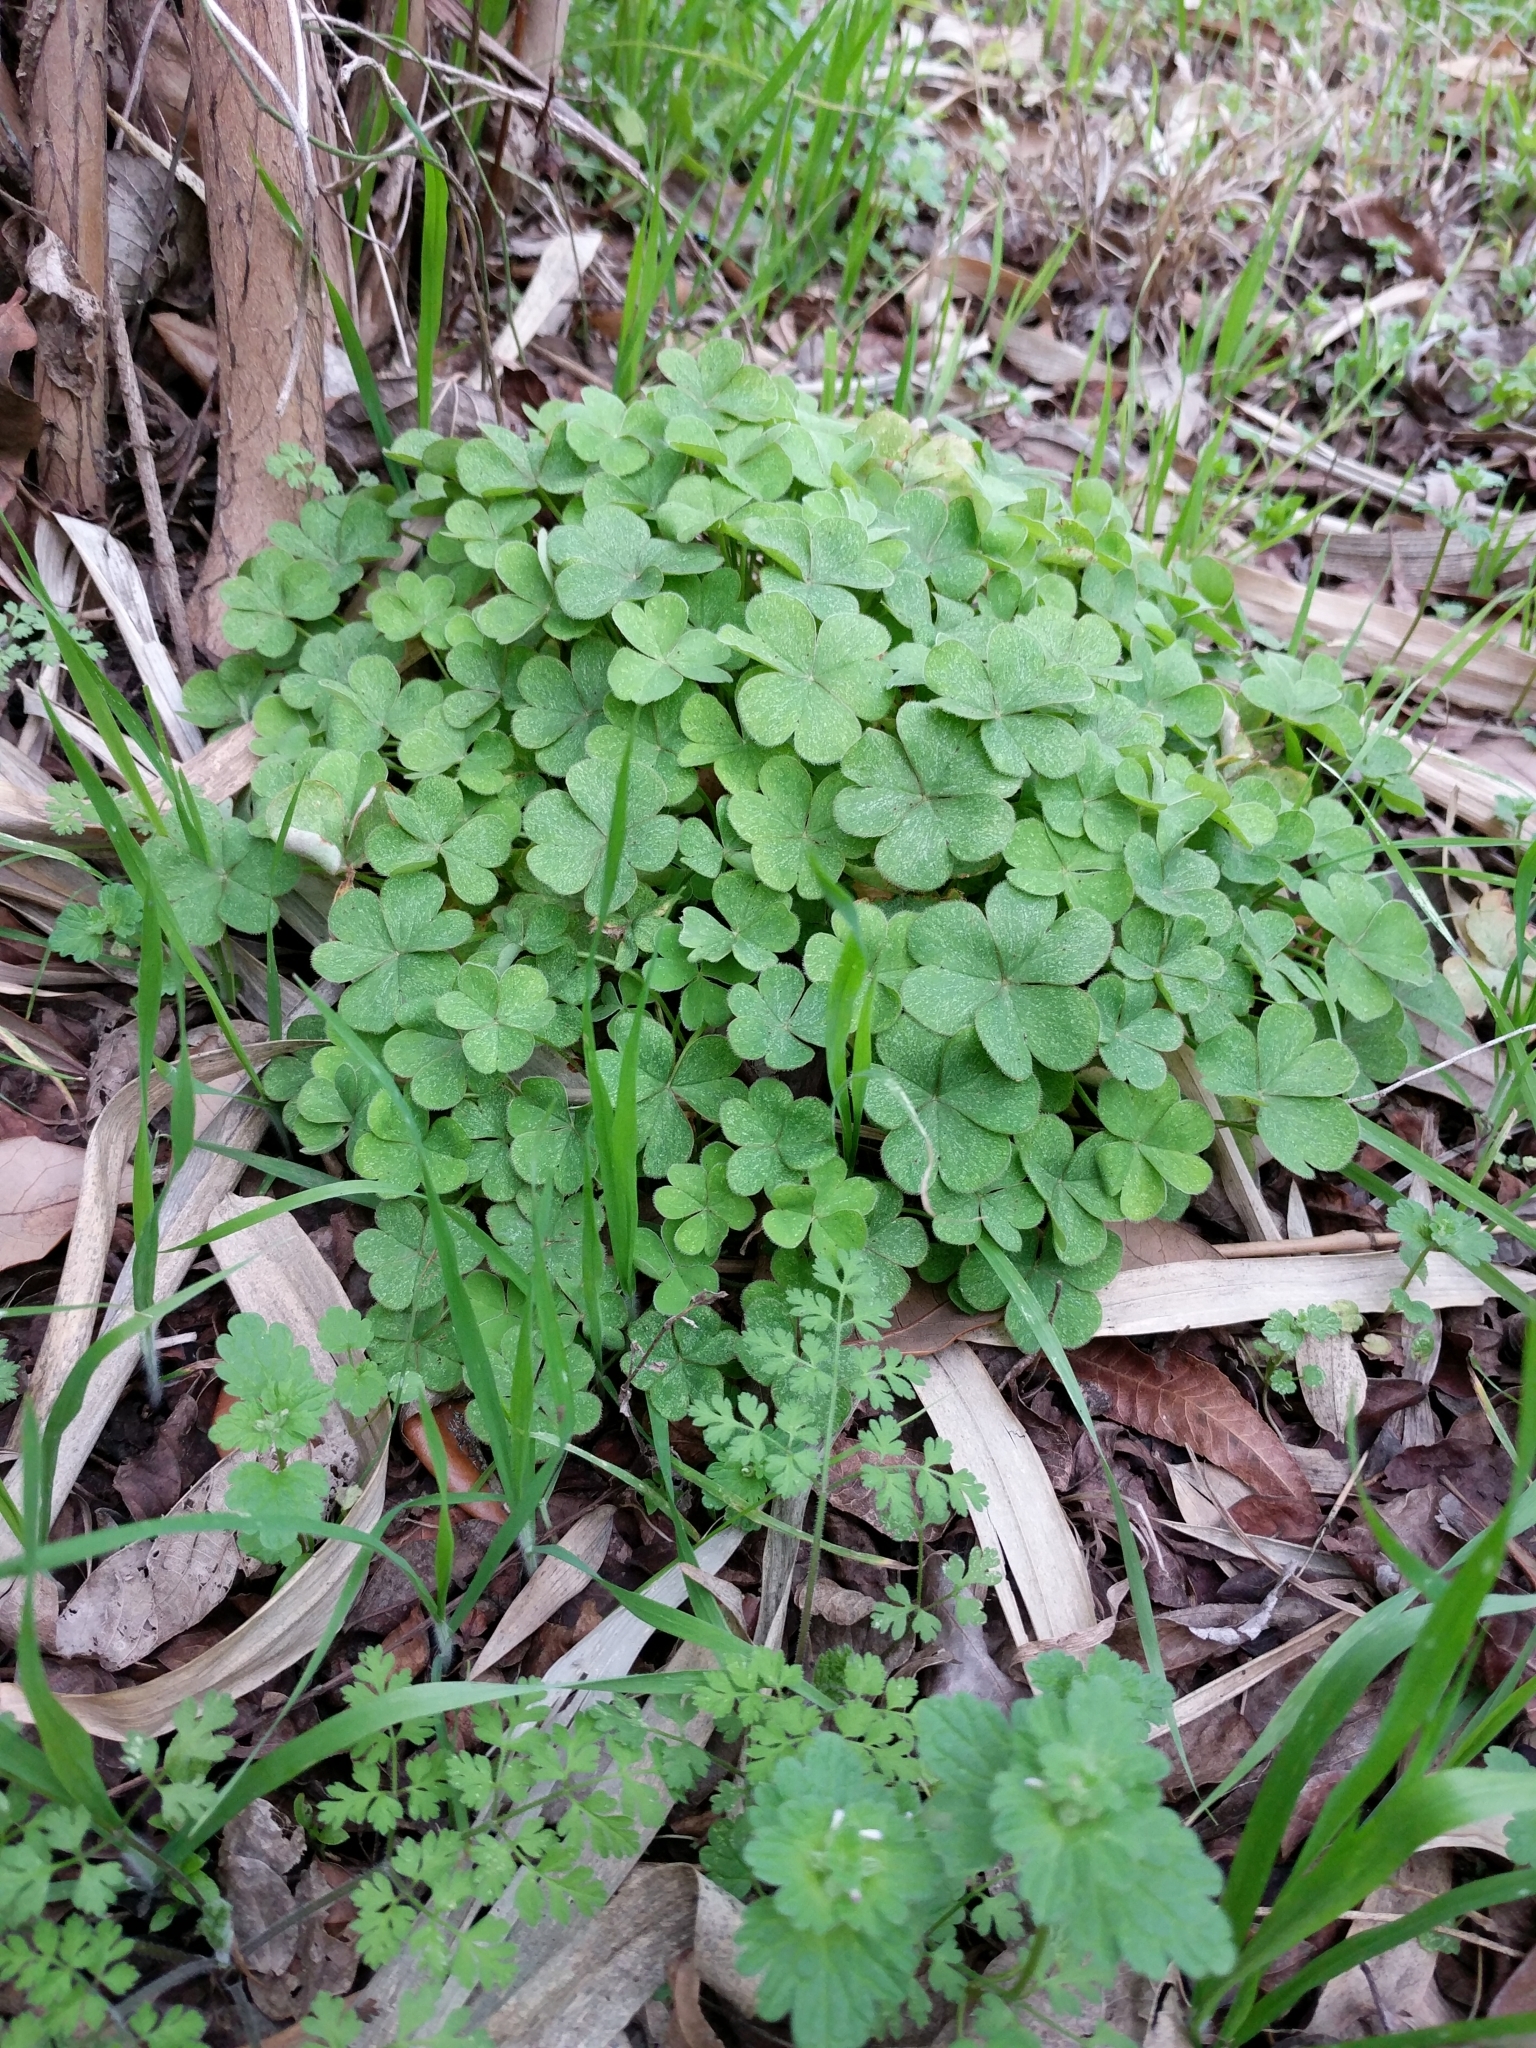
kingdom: Plantae
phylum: Tracheophyta
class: Magnoliopsida
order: Oxalidales
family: Oxalidaceae
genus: Oxalis
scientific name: Oxalis articulata
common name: Pink-sorrel
